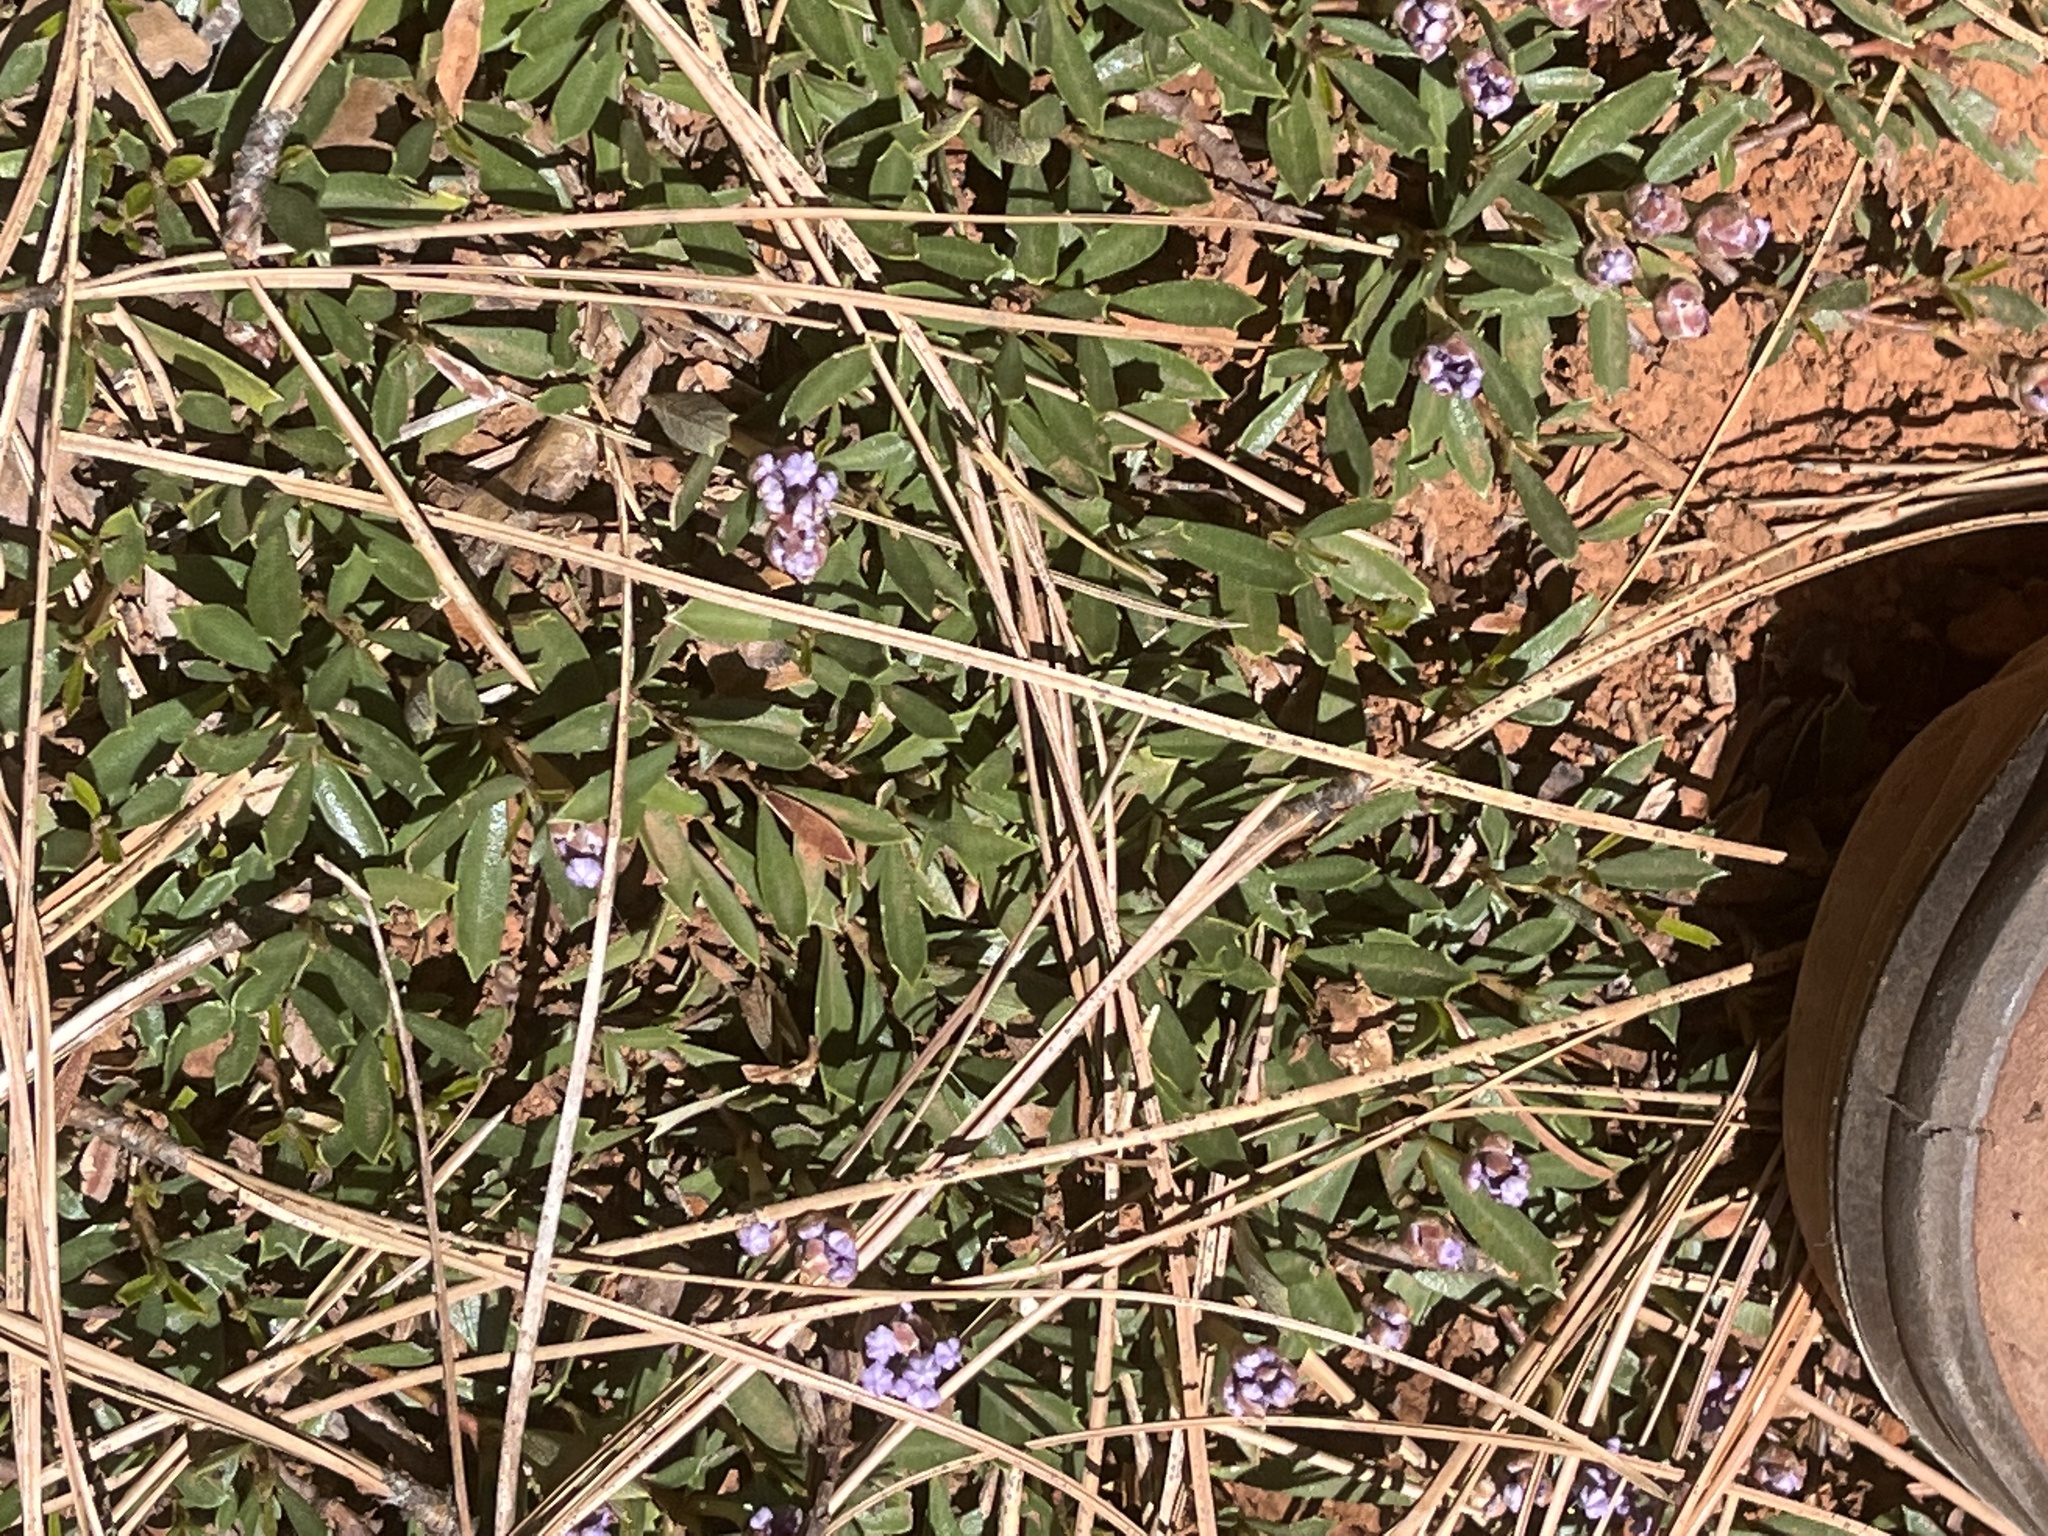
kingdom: Plantae
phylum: Tracheophyta
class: Magnoliopsida
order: Rosales
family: Rhamnaceae
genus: Ceanothus
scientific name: Ceanothus prostratus
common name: Mahala-mat
